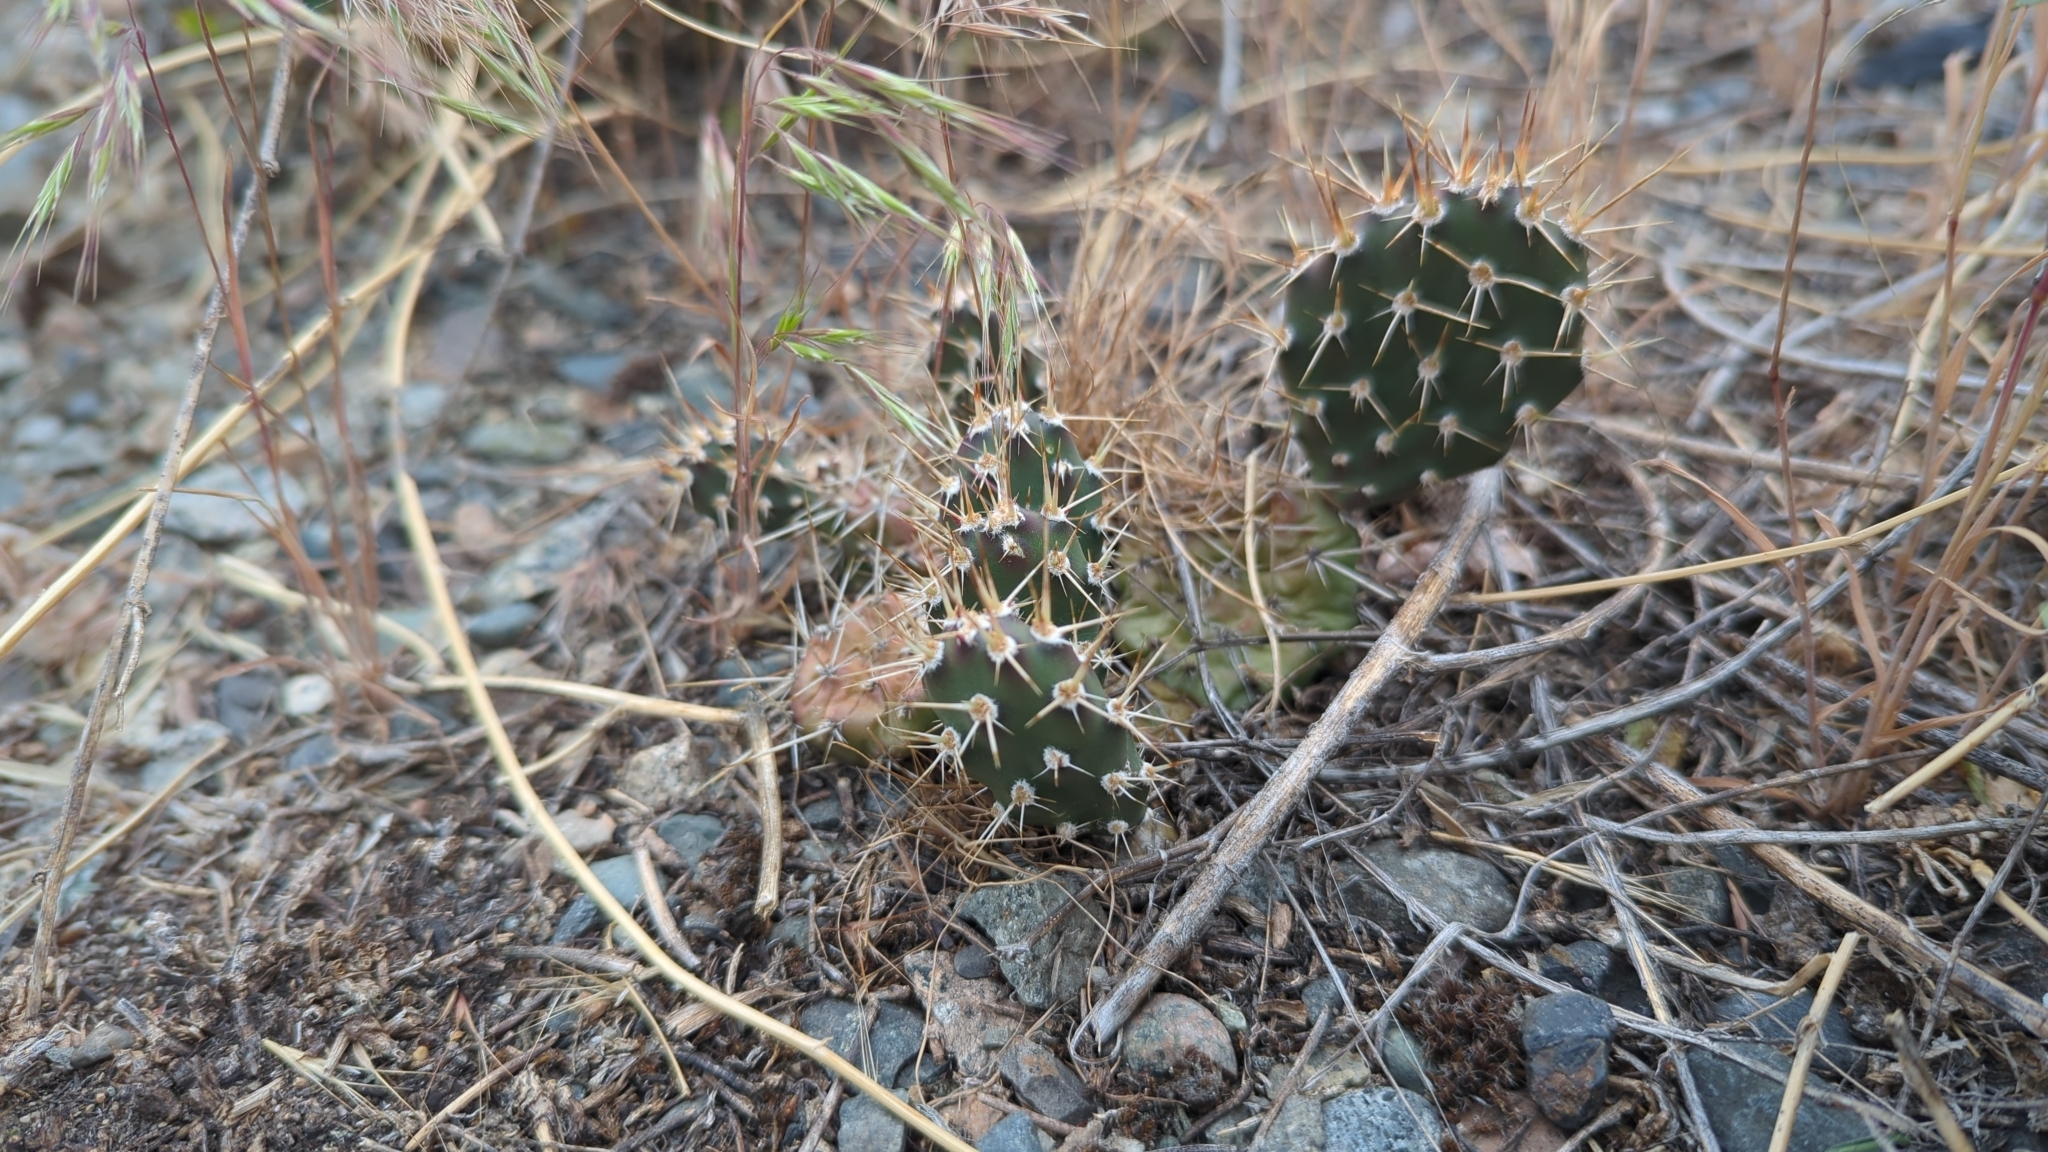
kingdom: Plantae
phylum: Tracheophyta
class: Magnoliopsida
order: Caryophyllales
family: Cactaceae
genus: Opuntia
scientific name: Opuntia fragilis
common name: Brittle cactus
